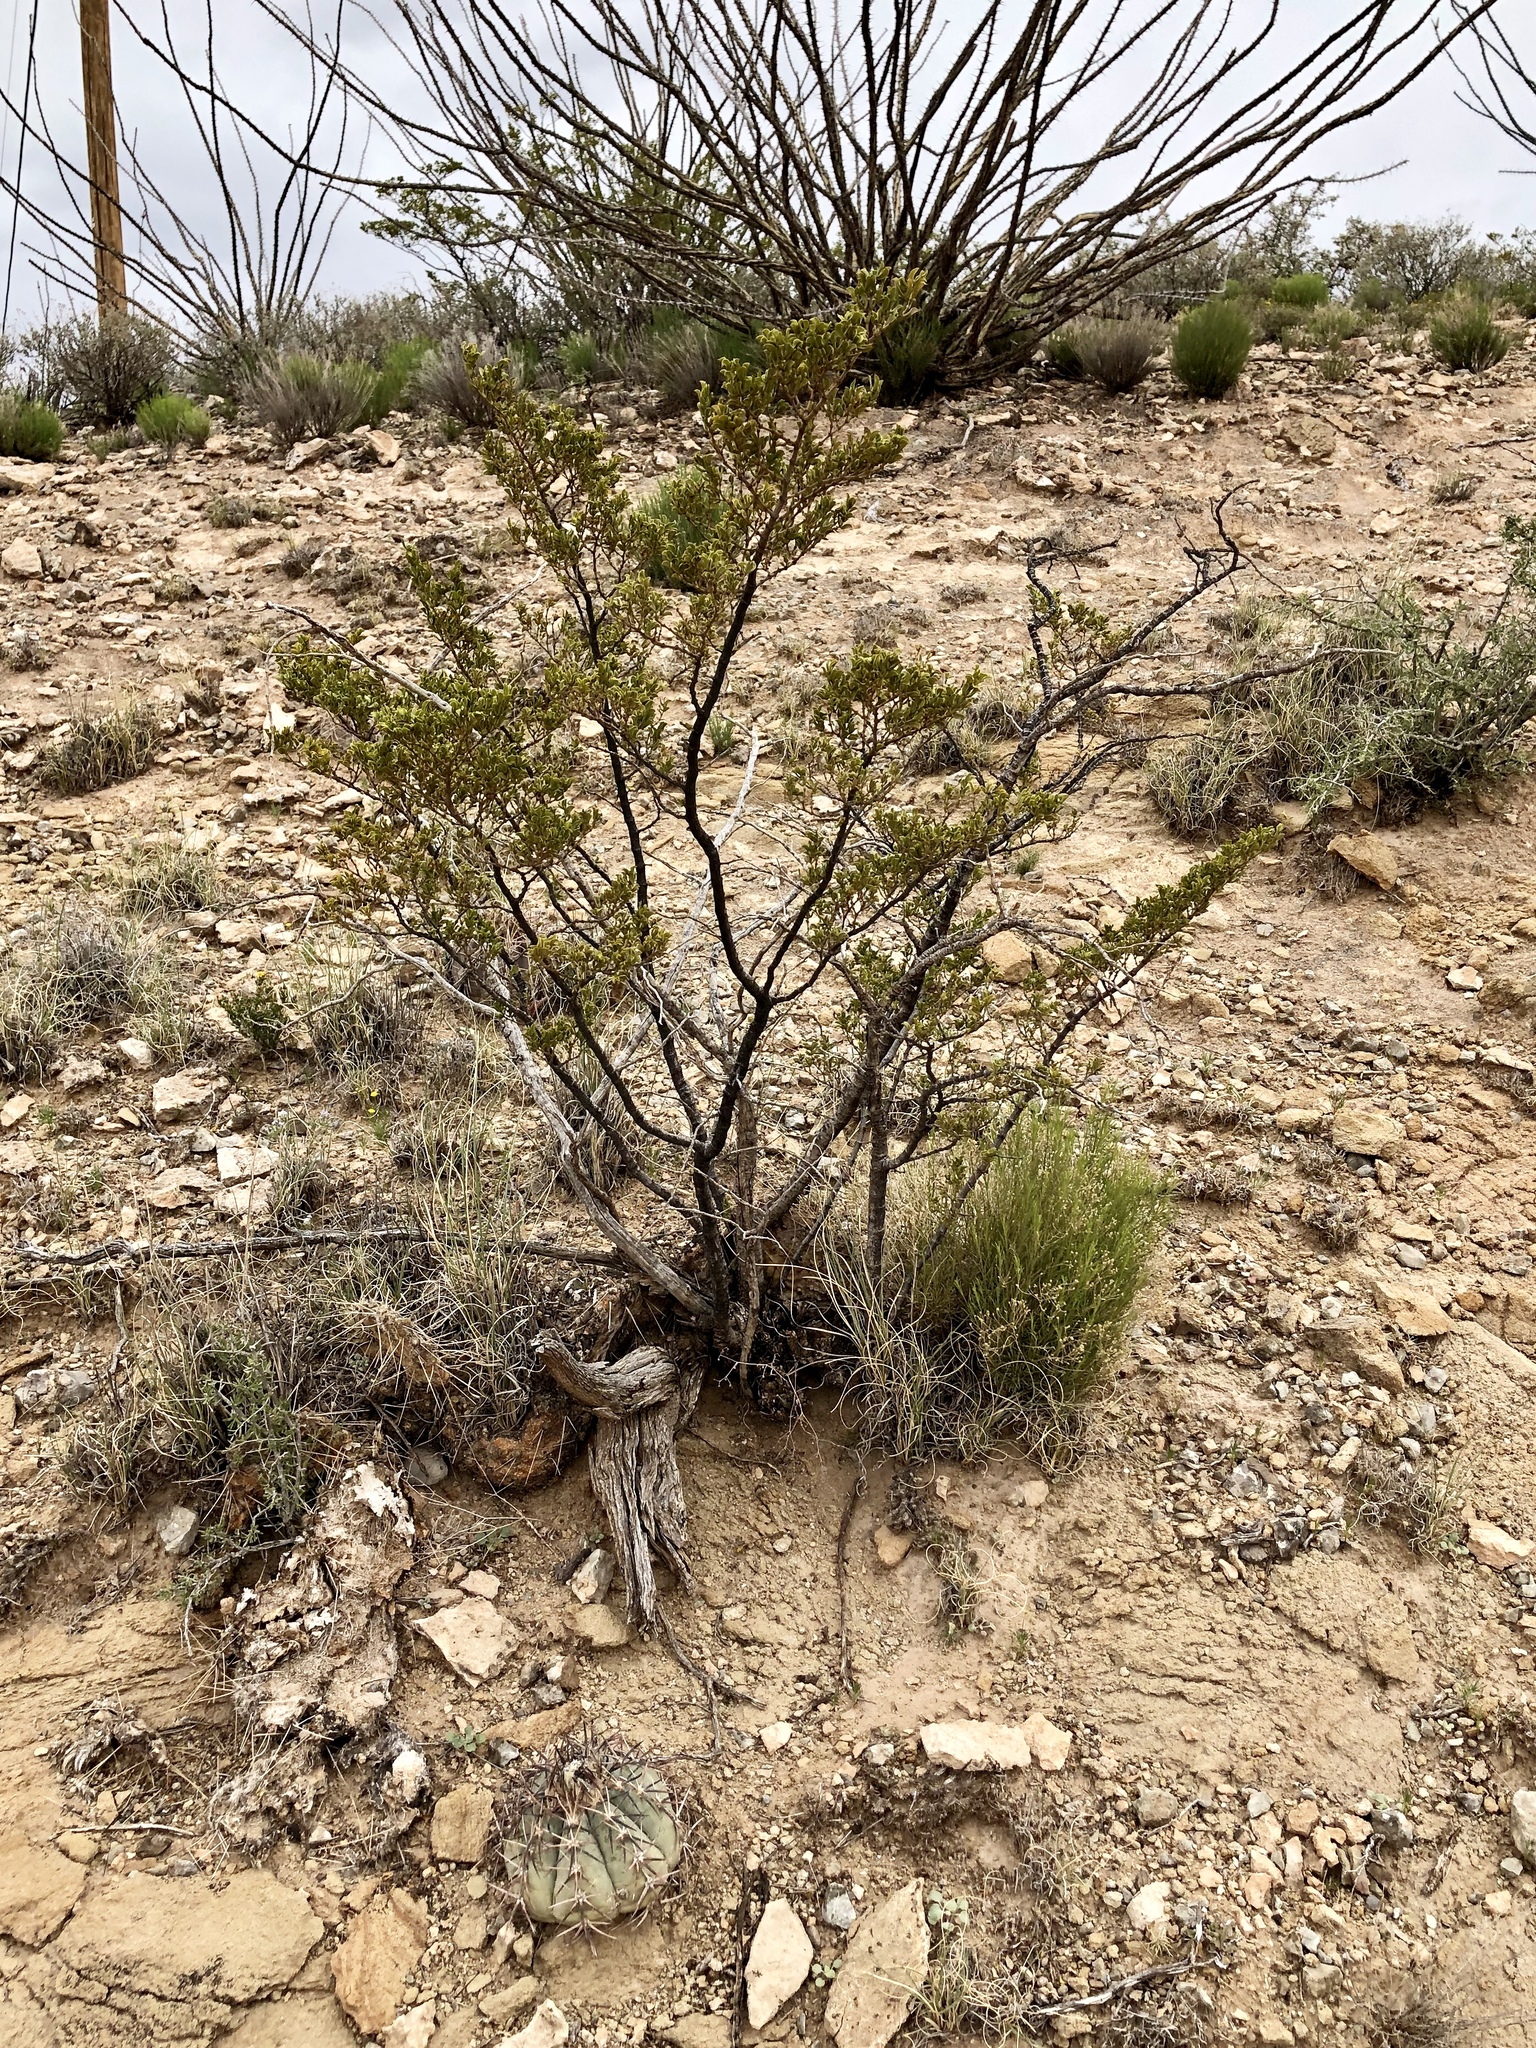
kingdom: Plantae
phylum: Tracheophyta
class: Magnoliopsida
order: Caryophyllales
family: Cactaceae
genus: Echinocactus
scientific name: Echinocactus horizonthalonius
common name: Devilshead
